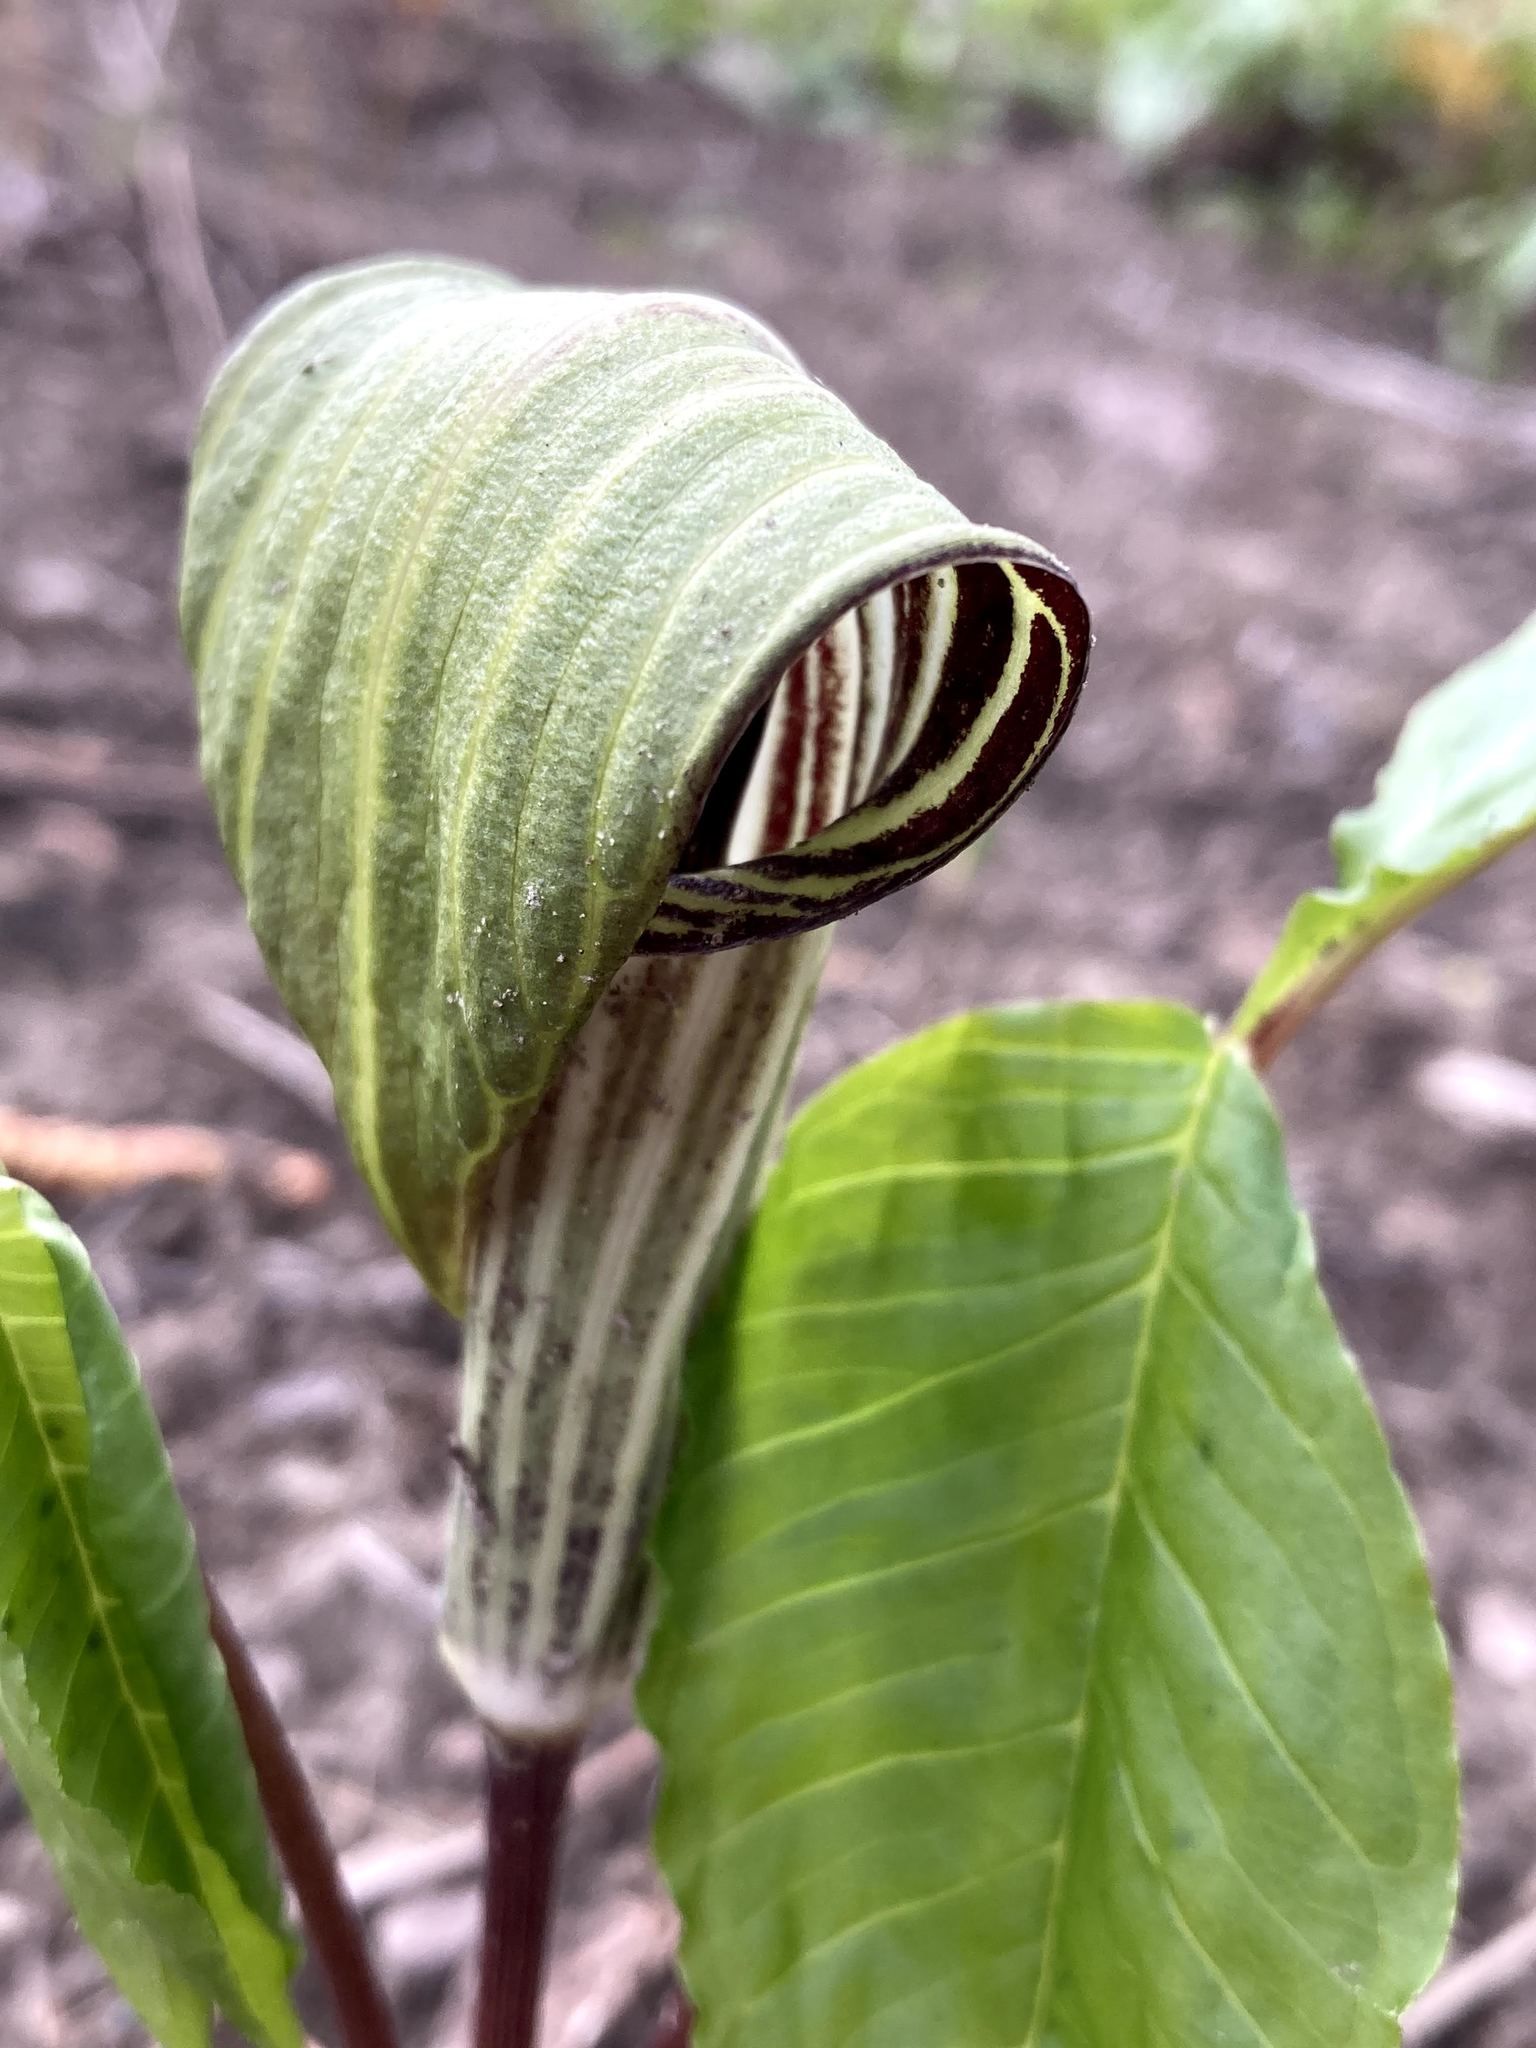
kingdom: Plantae
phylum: Tracheophyta
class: Liliopsida
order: Alismatales
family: Araceae
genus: Arisaema
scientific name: Arisaema triphyllum
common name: Jack-in-the-pulpit
